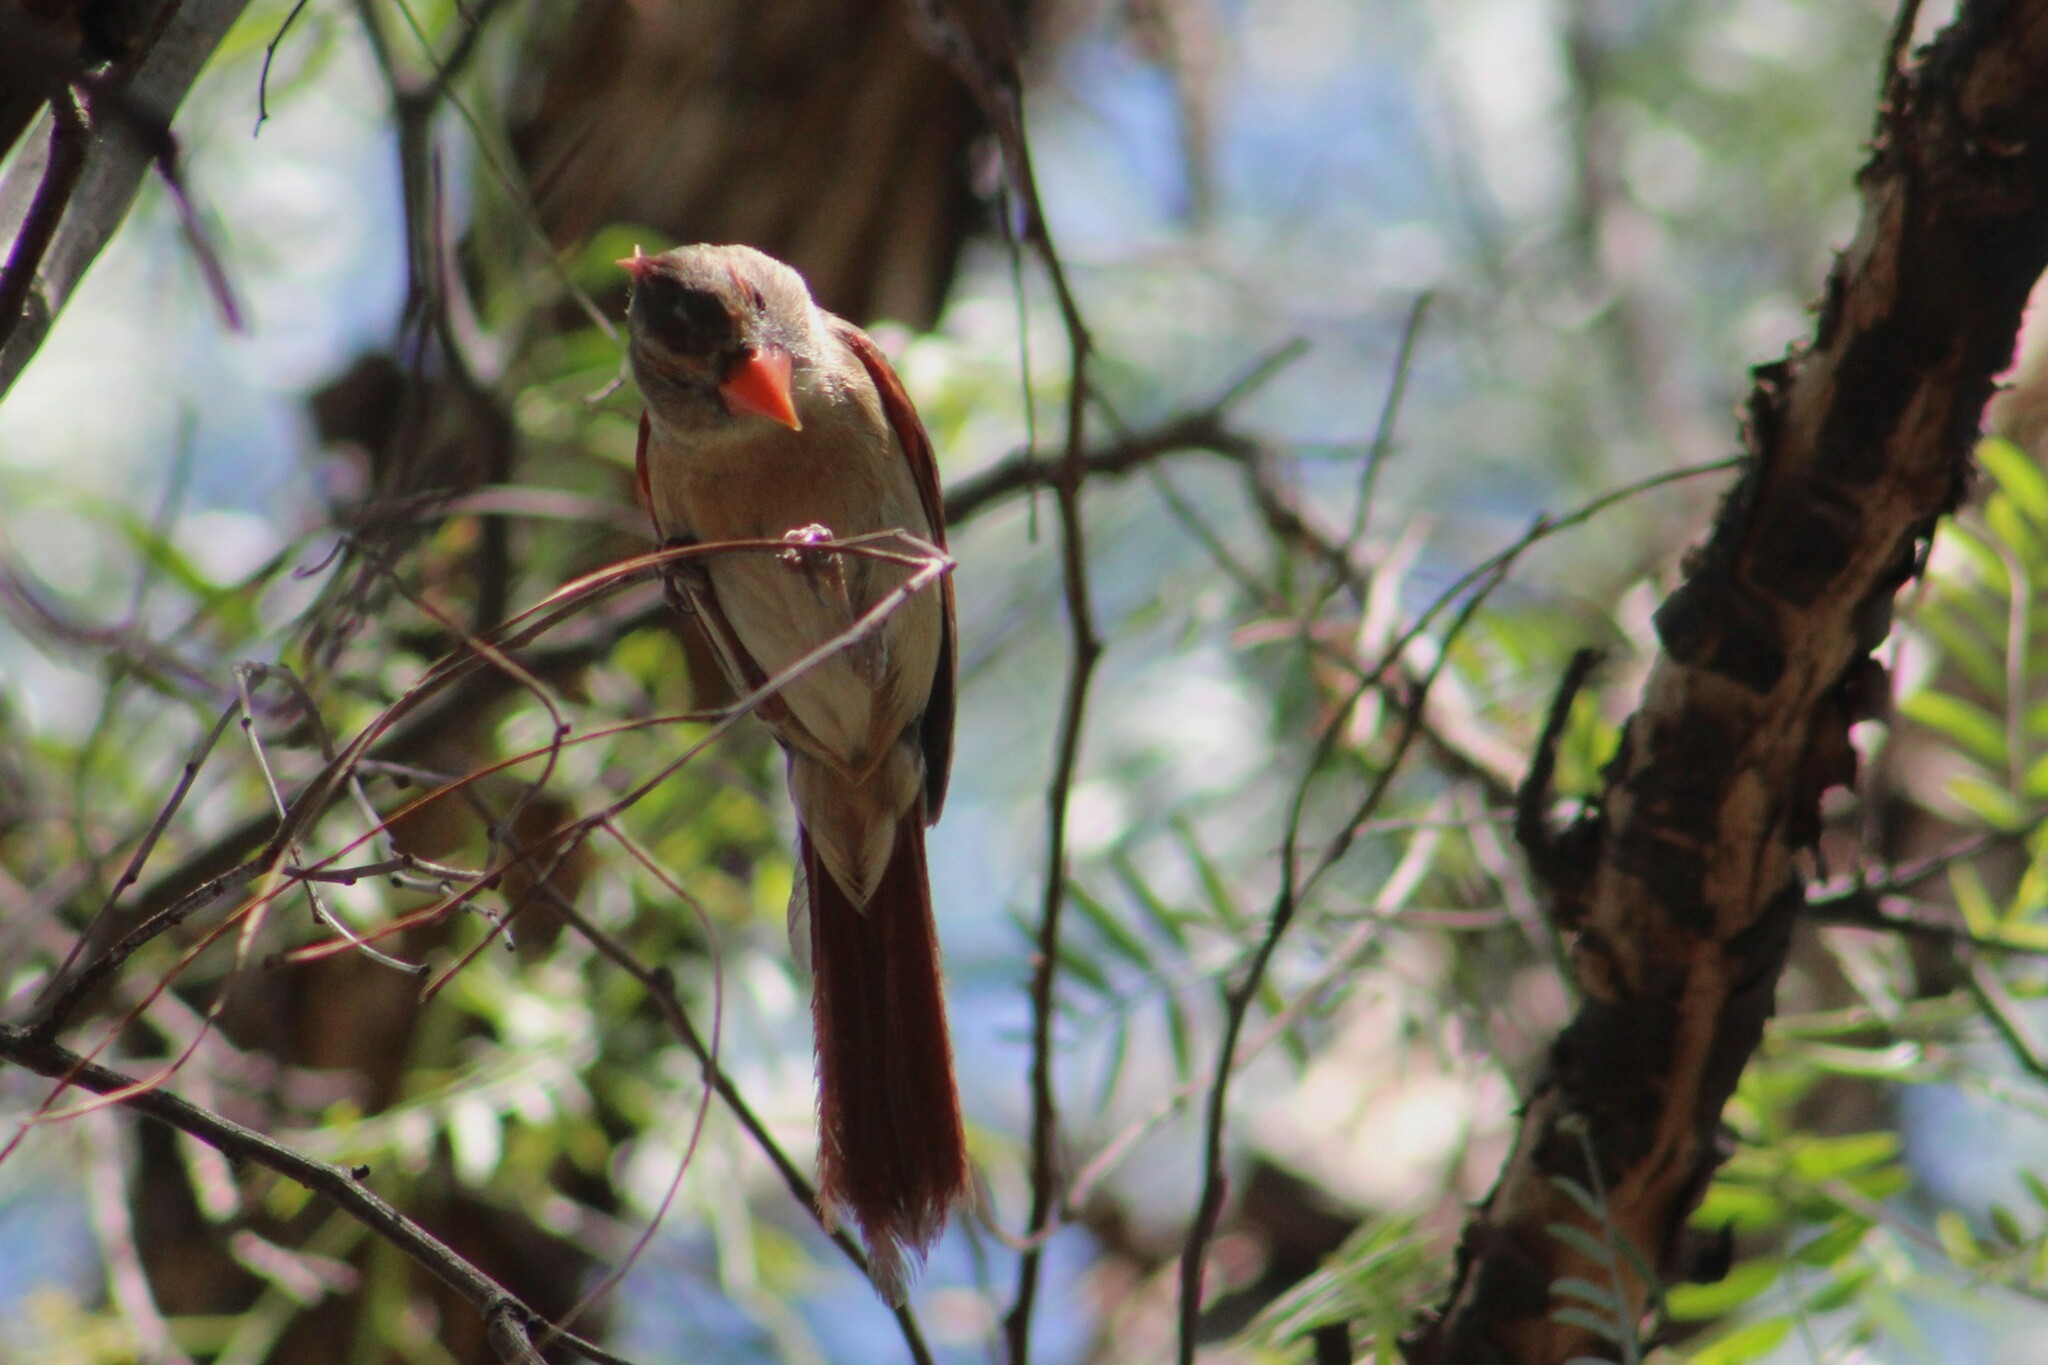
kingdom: Animalia
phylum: Chordata
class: Aves
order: Passeriformes
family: Cardinalidae
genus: Cardinalis
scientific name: Cardinalis cardinalis
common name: Northern cardinal
